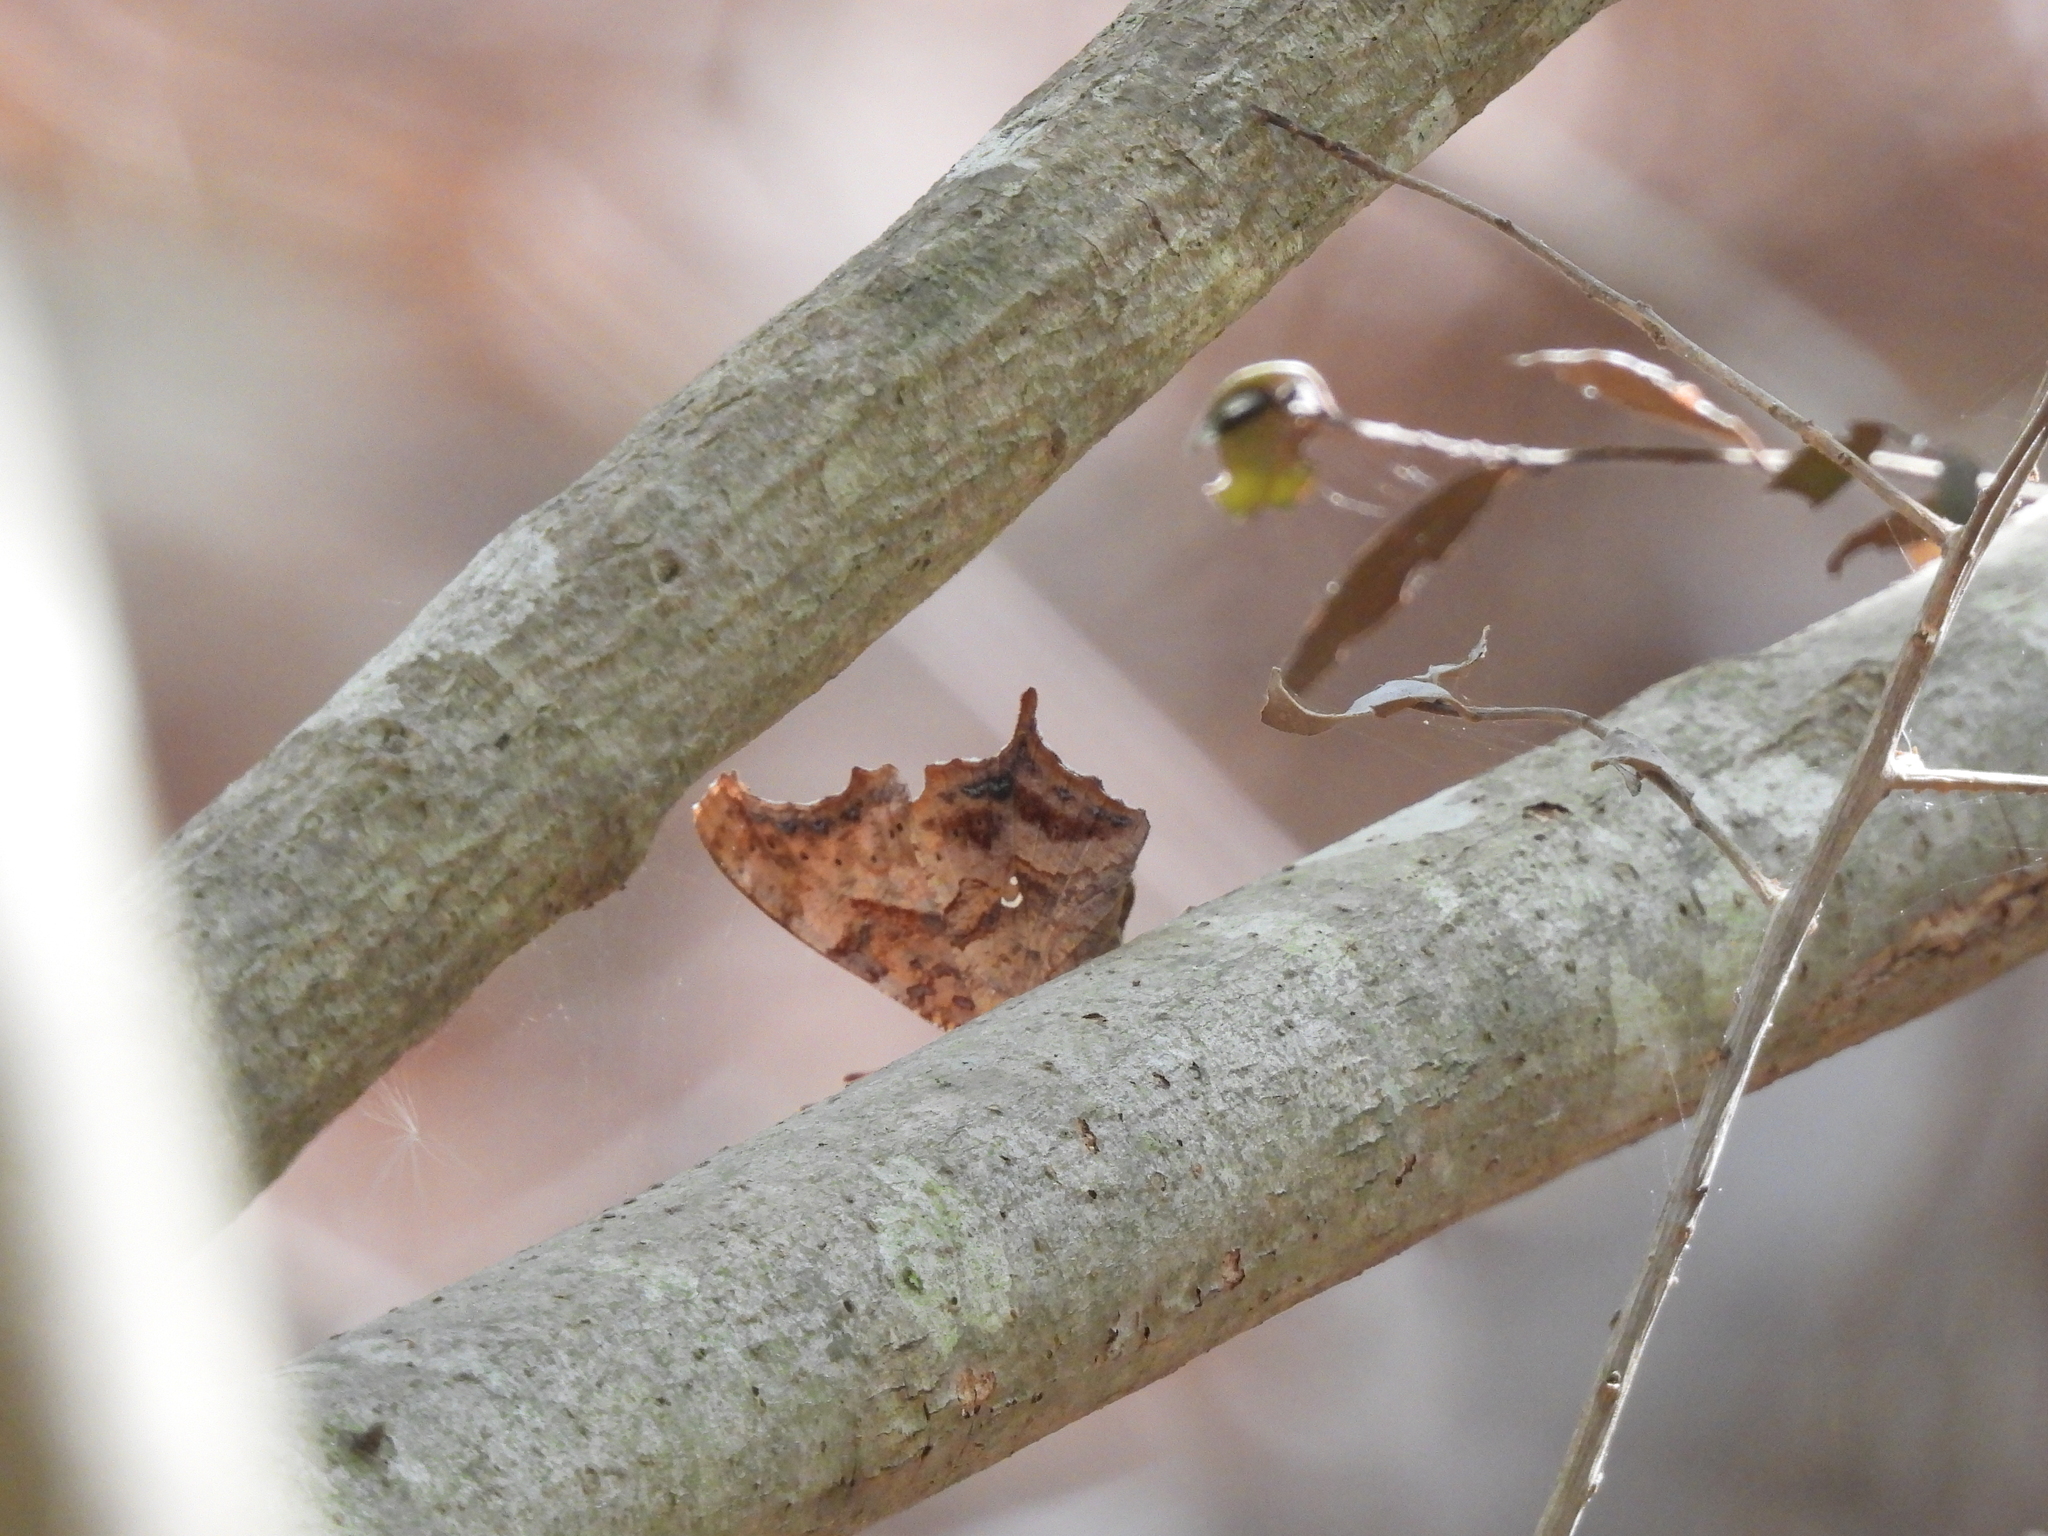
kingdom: Animalia
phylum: Arthropoda
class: Insecta
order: Lepidoptera
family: Nymphalidae
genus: Polygonia
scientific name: Polygonia interrogationis
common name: Question mark
